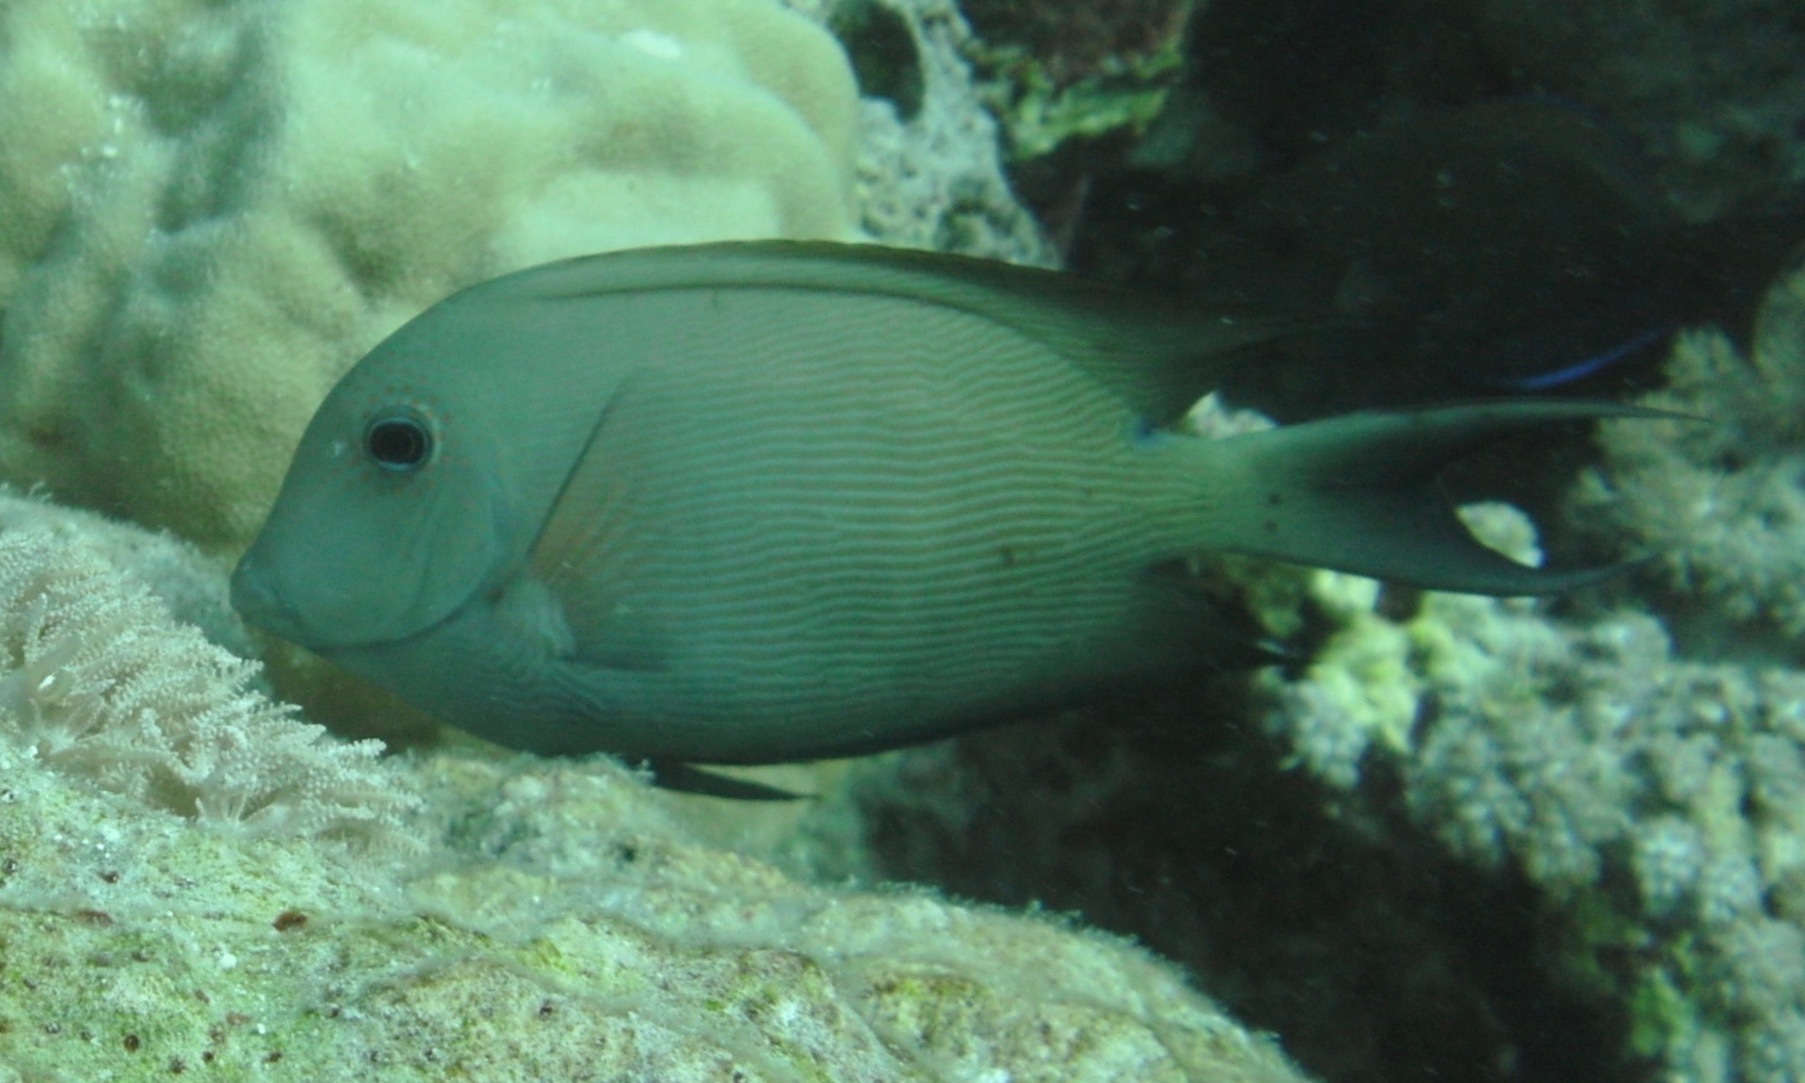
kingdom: Animalia
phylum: Chordata
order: Perciformes
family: Acanthuridae
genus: Ctenochaetus
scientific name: Ctenochaetus striatus
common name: Bristle-toothed surgeonfish
